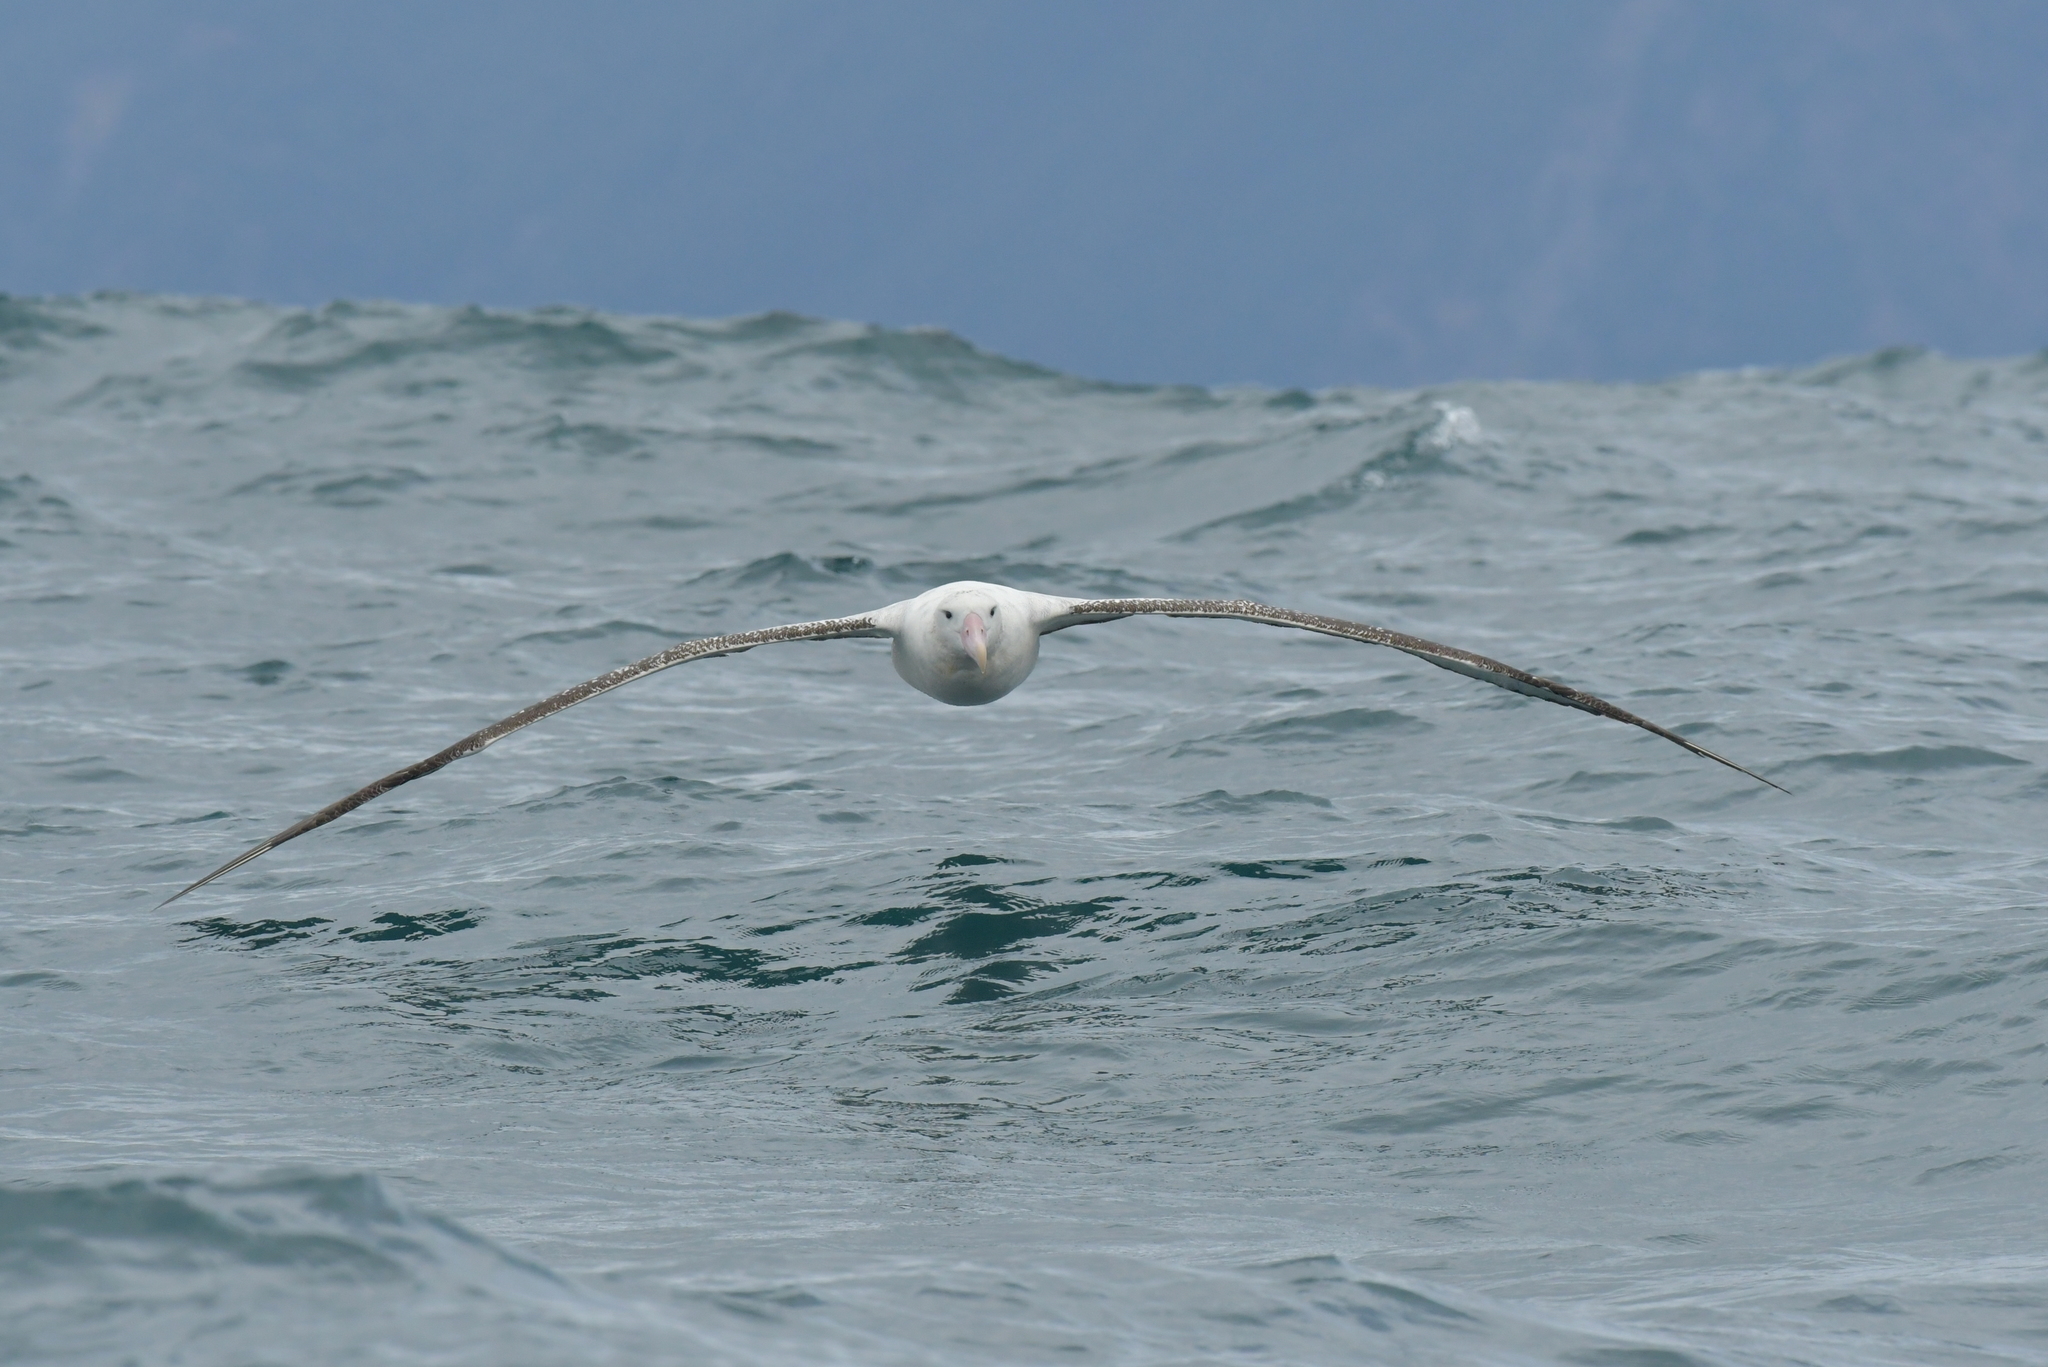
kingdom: Animalia
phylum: Chordata
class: Aves
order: Procellariiformes
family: Diomedeidae
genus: Diomedea
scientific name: Diomedea epomophora
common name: Southern royal albatross
